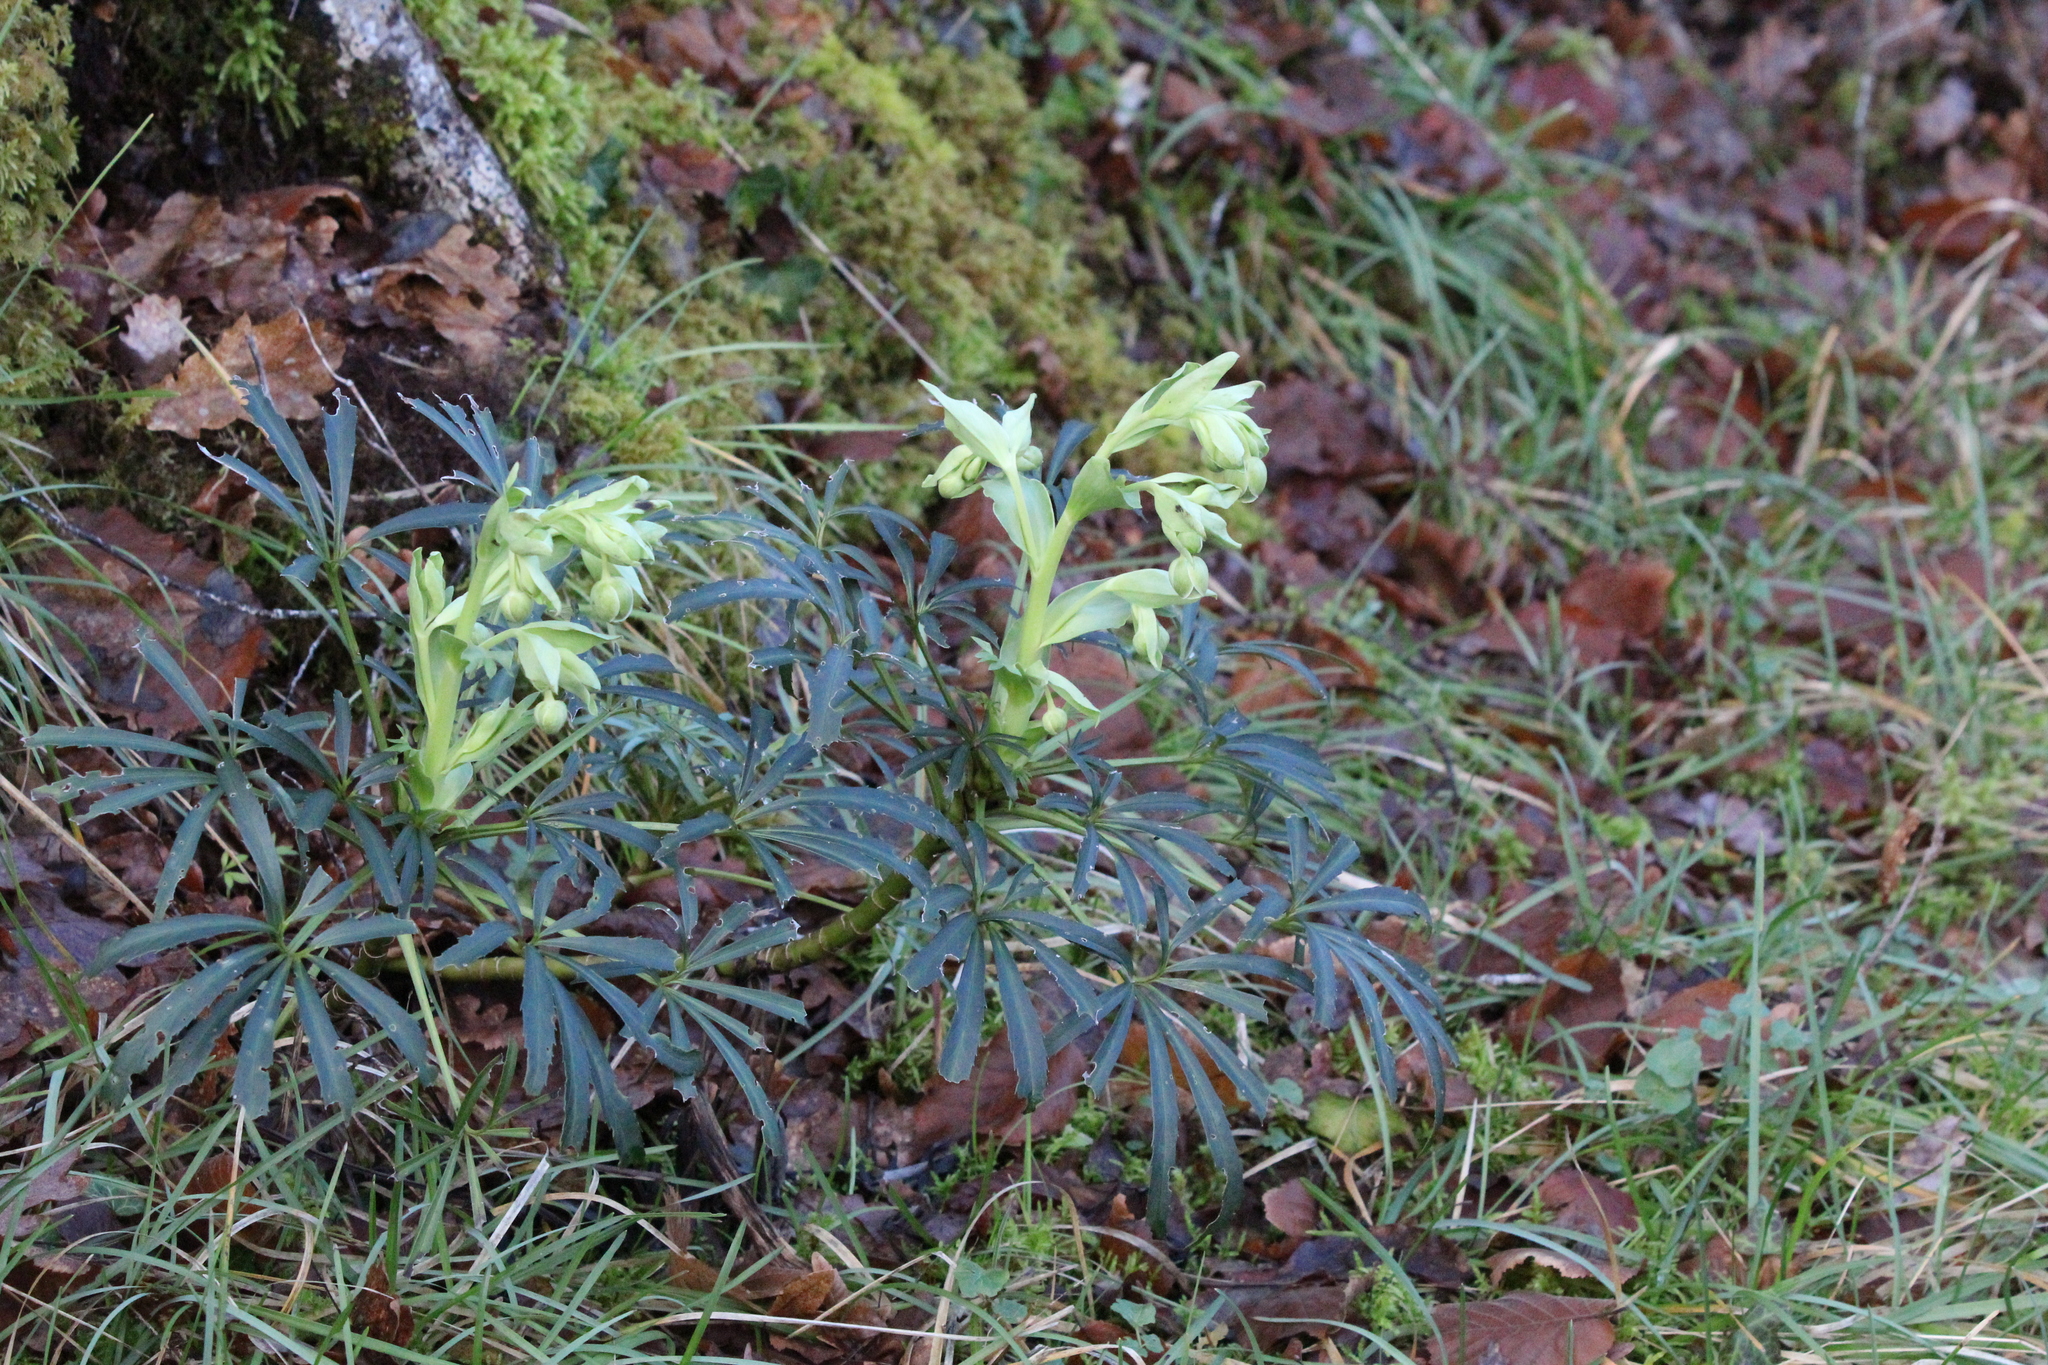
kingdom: Plantae
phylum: Tracheophyta
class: Magnoliopsida
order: Ranunculales
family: Ranunculaceae
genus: Helleborus
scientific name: Helleborus foetidus
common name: Stinking hellebore
